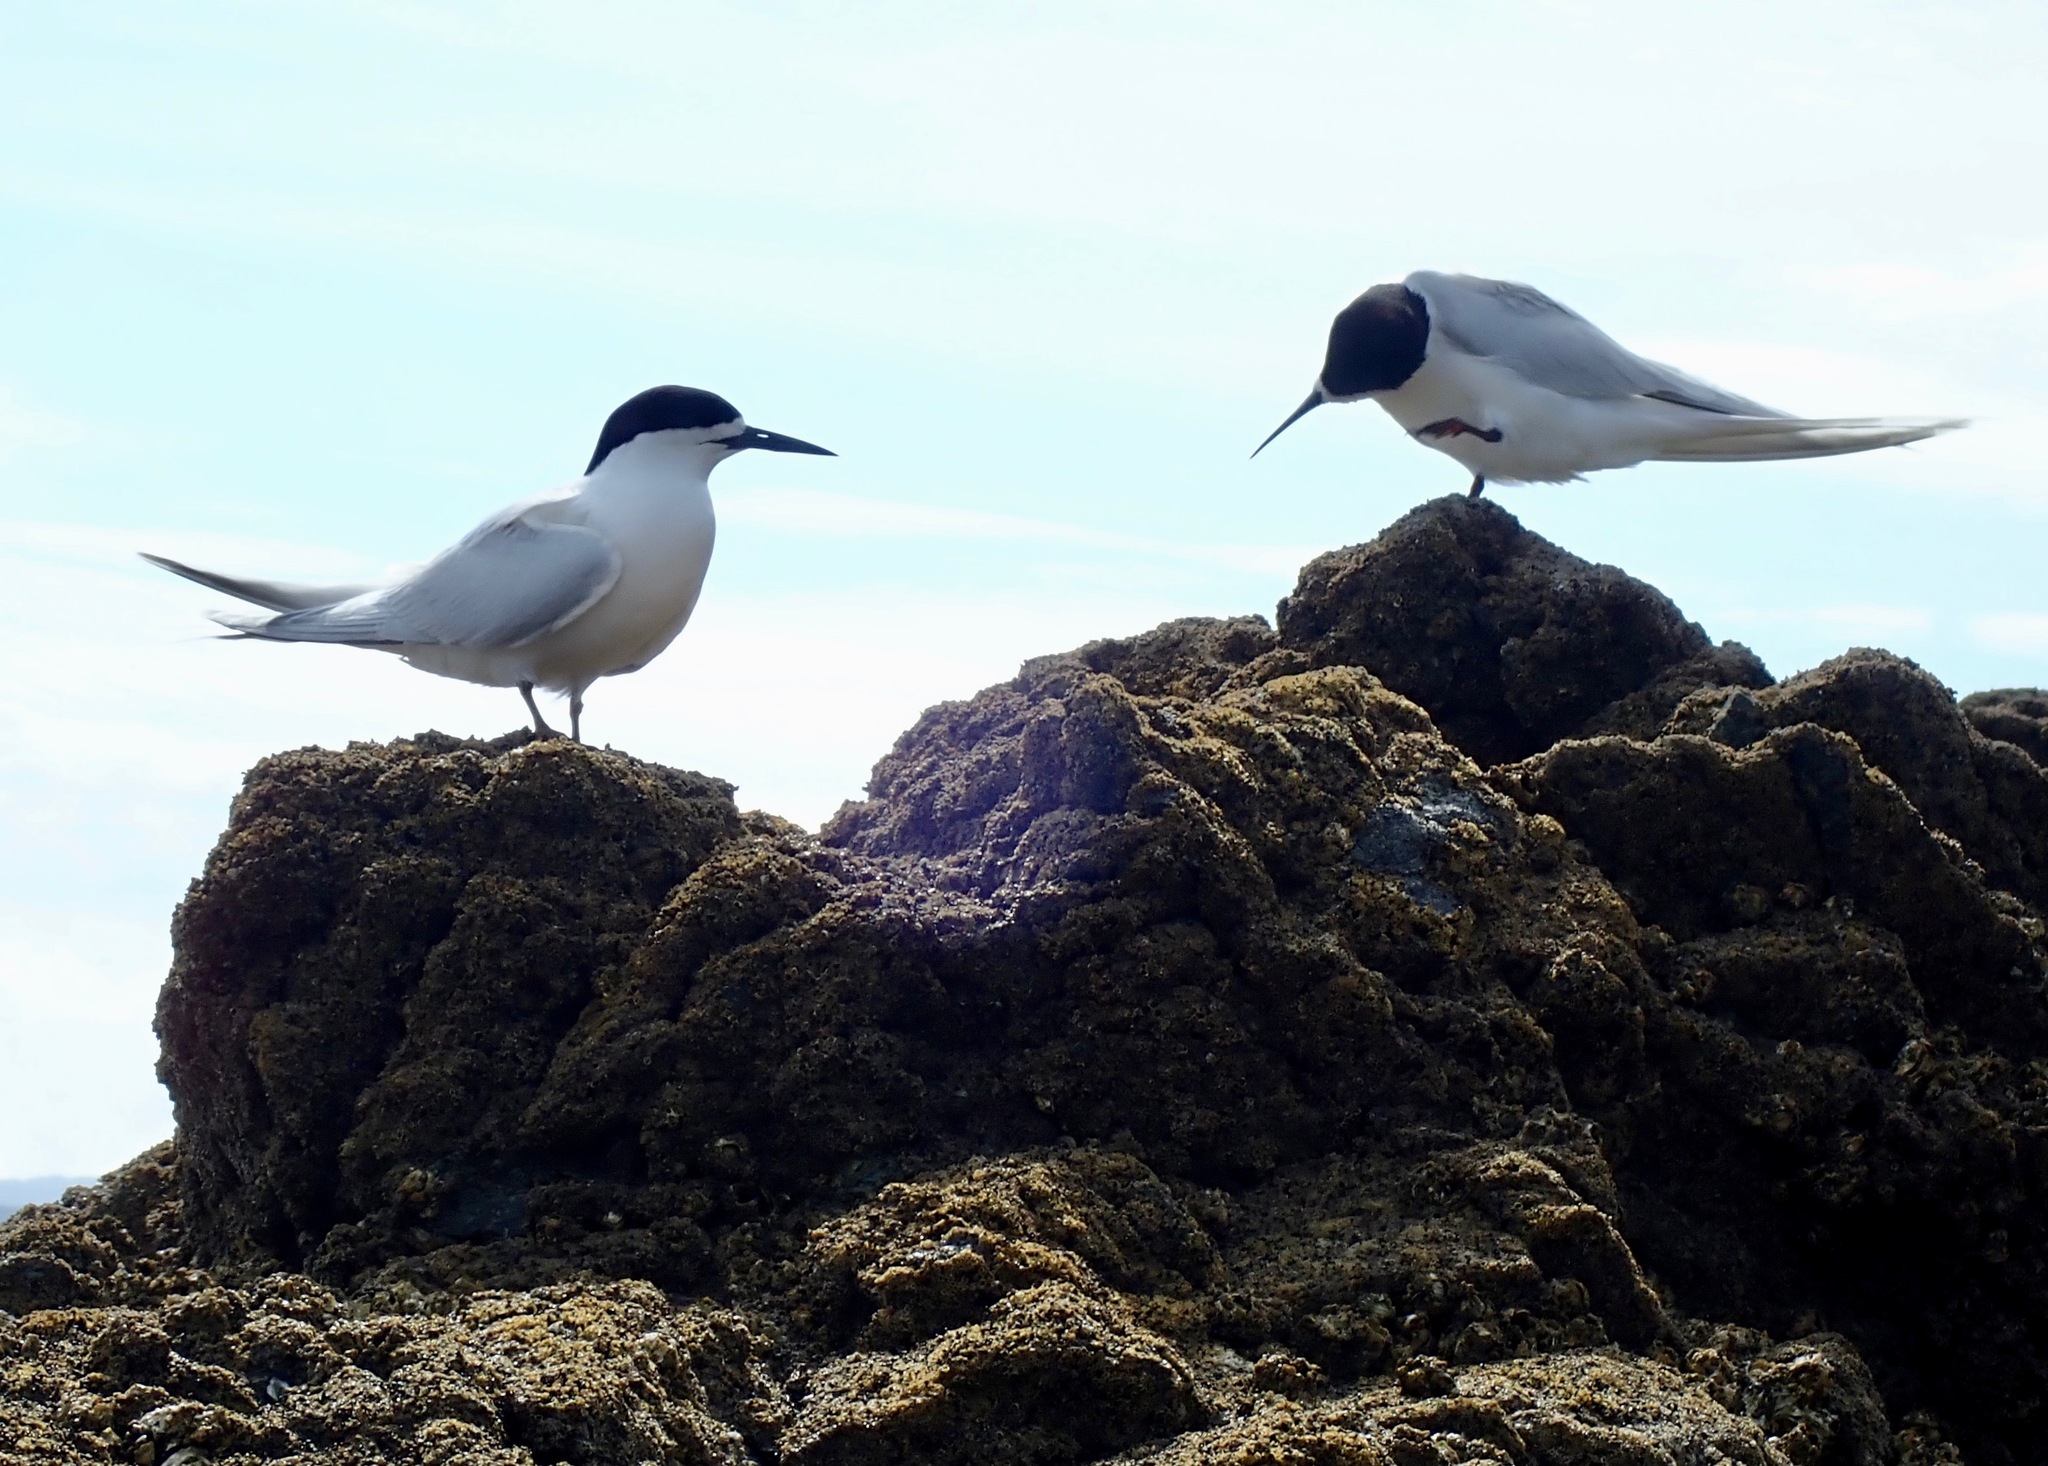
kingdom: Animalia
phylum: Chordata
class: Aves
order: Charadriiformes
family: Laridae
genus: Sterna
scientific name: Sterna striata
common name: White-fronted tern
